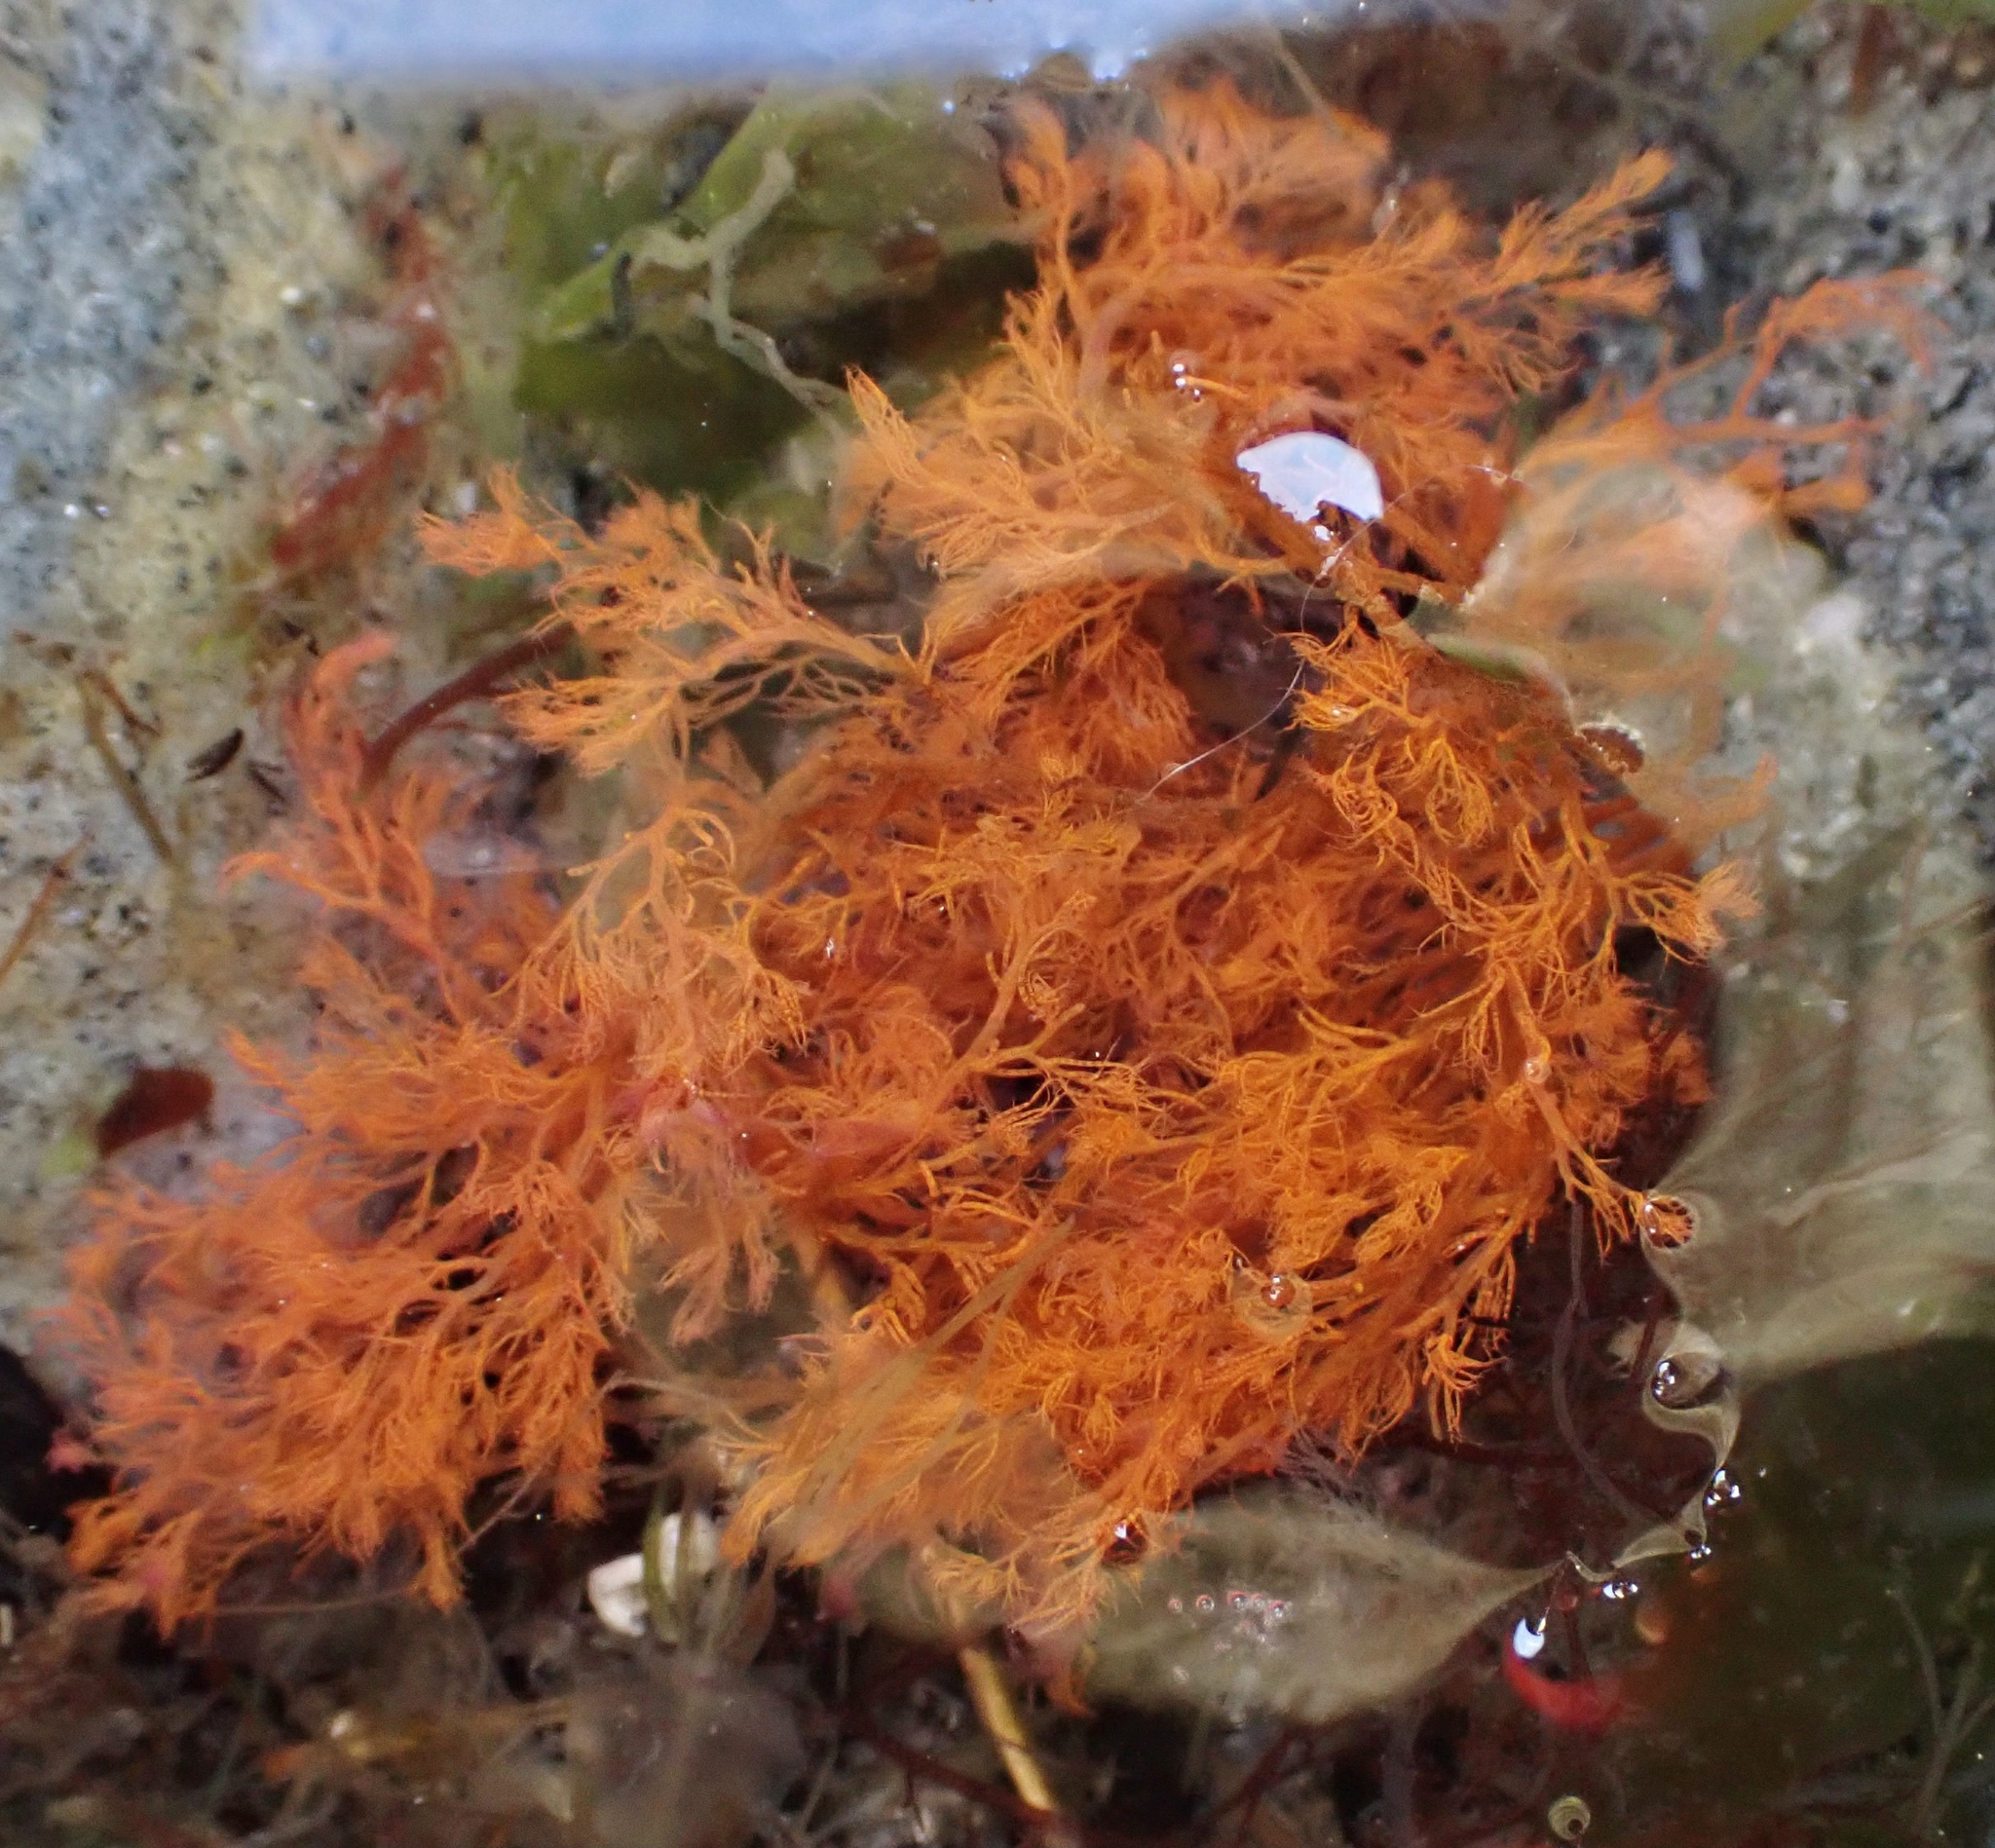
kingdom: Plantae
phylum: Rhodophyta
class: Florideophyceae
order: Ceramiales
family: Dasyaceae
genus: Dasysiphonia
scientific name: Dasysiphonia japonica
